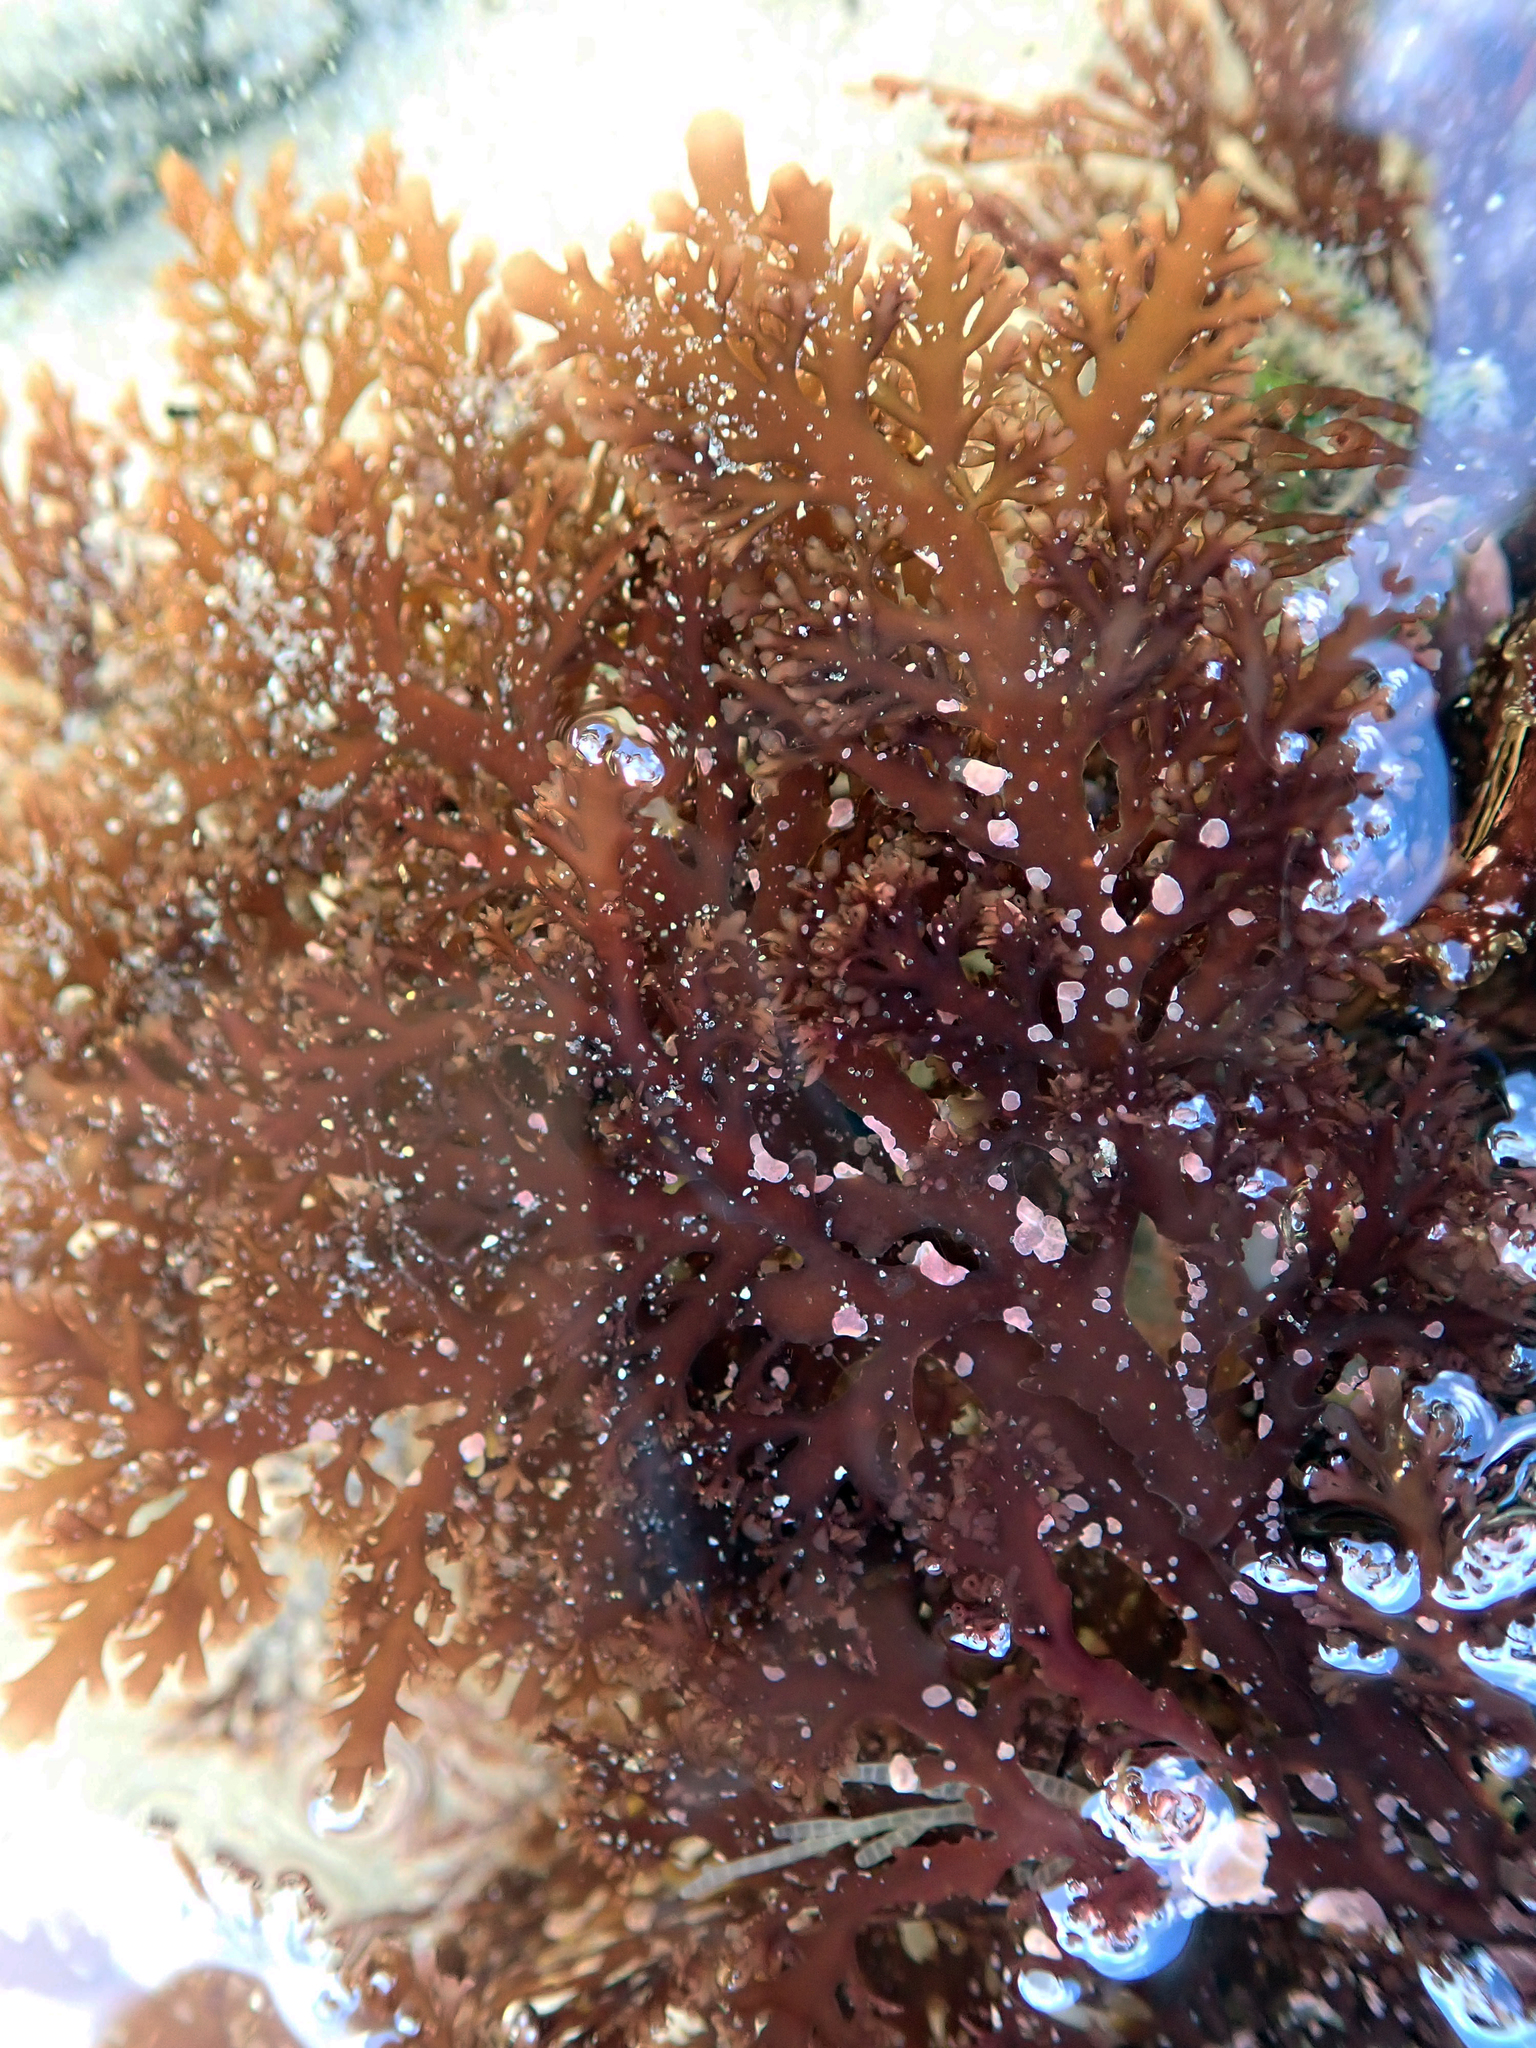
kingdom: Plantae
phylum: Rhodophyta
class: Florideophyceae
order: Gelidiales
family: Pterocladiaceae
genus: Pterocladia
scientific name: Pterocladia lucida
